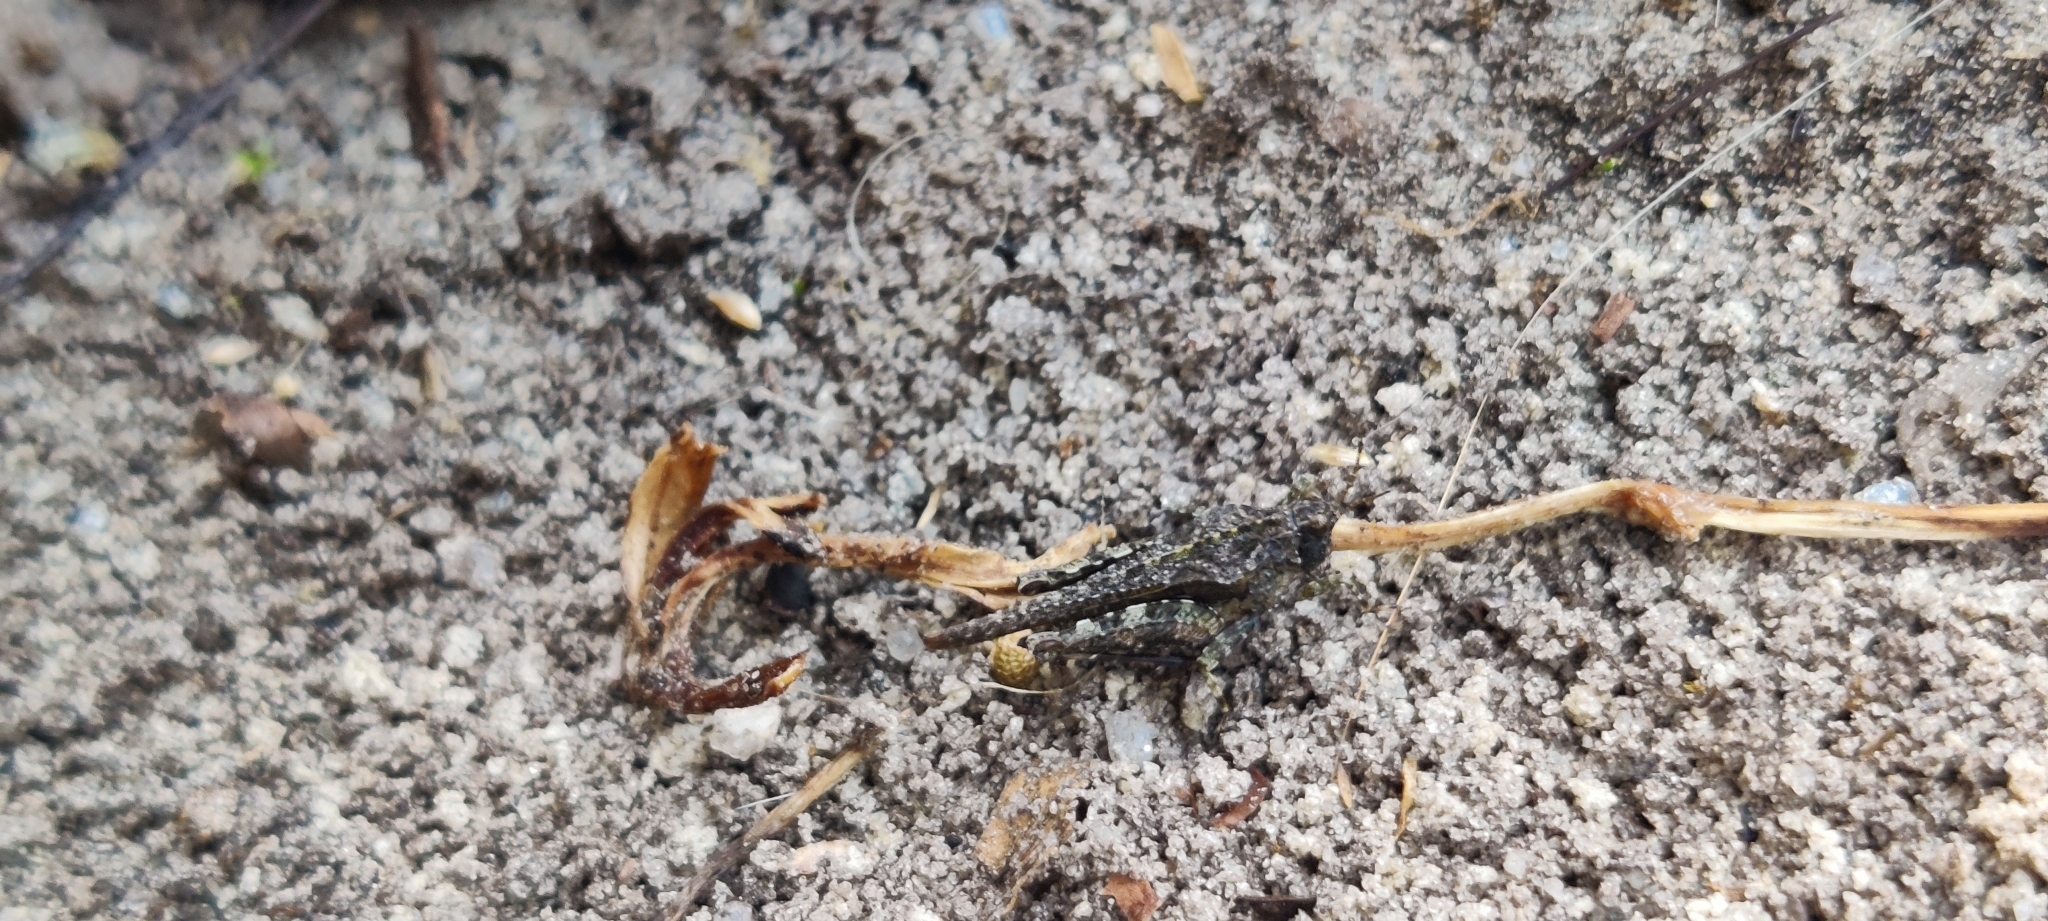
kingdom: Animalia
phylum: Arthropoda
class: Insecta
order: Orthoptera
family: Tetrigidae
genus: Tetrix
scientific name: Tetrix ceperoi
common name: Cepero's ground-hopper
